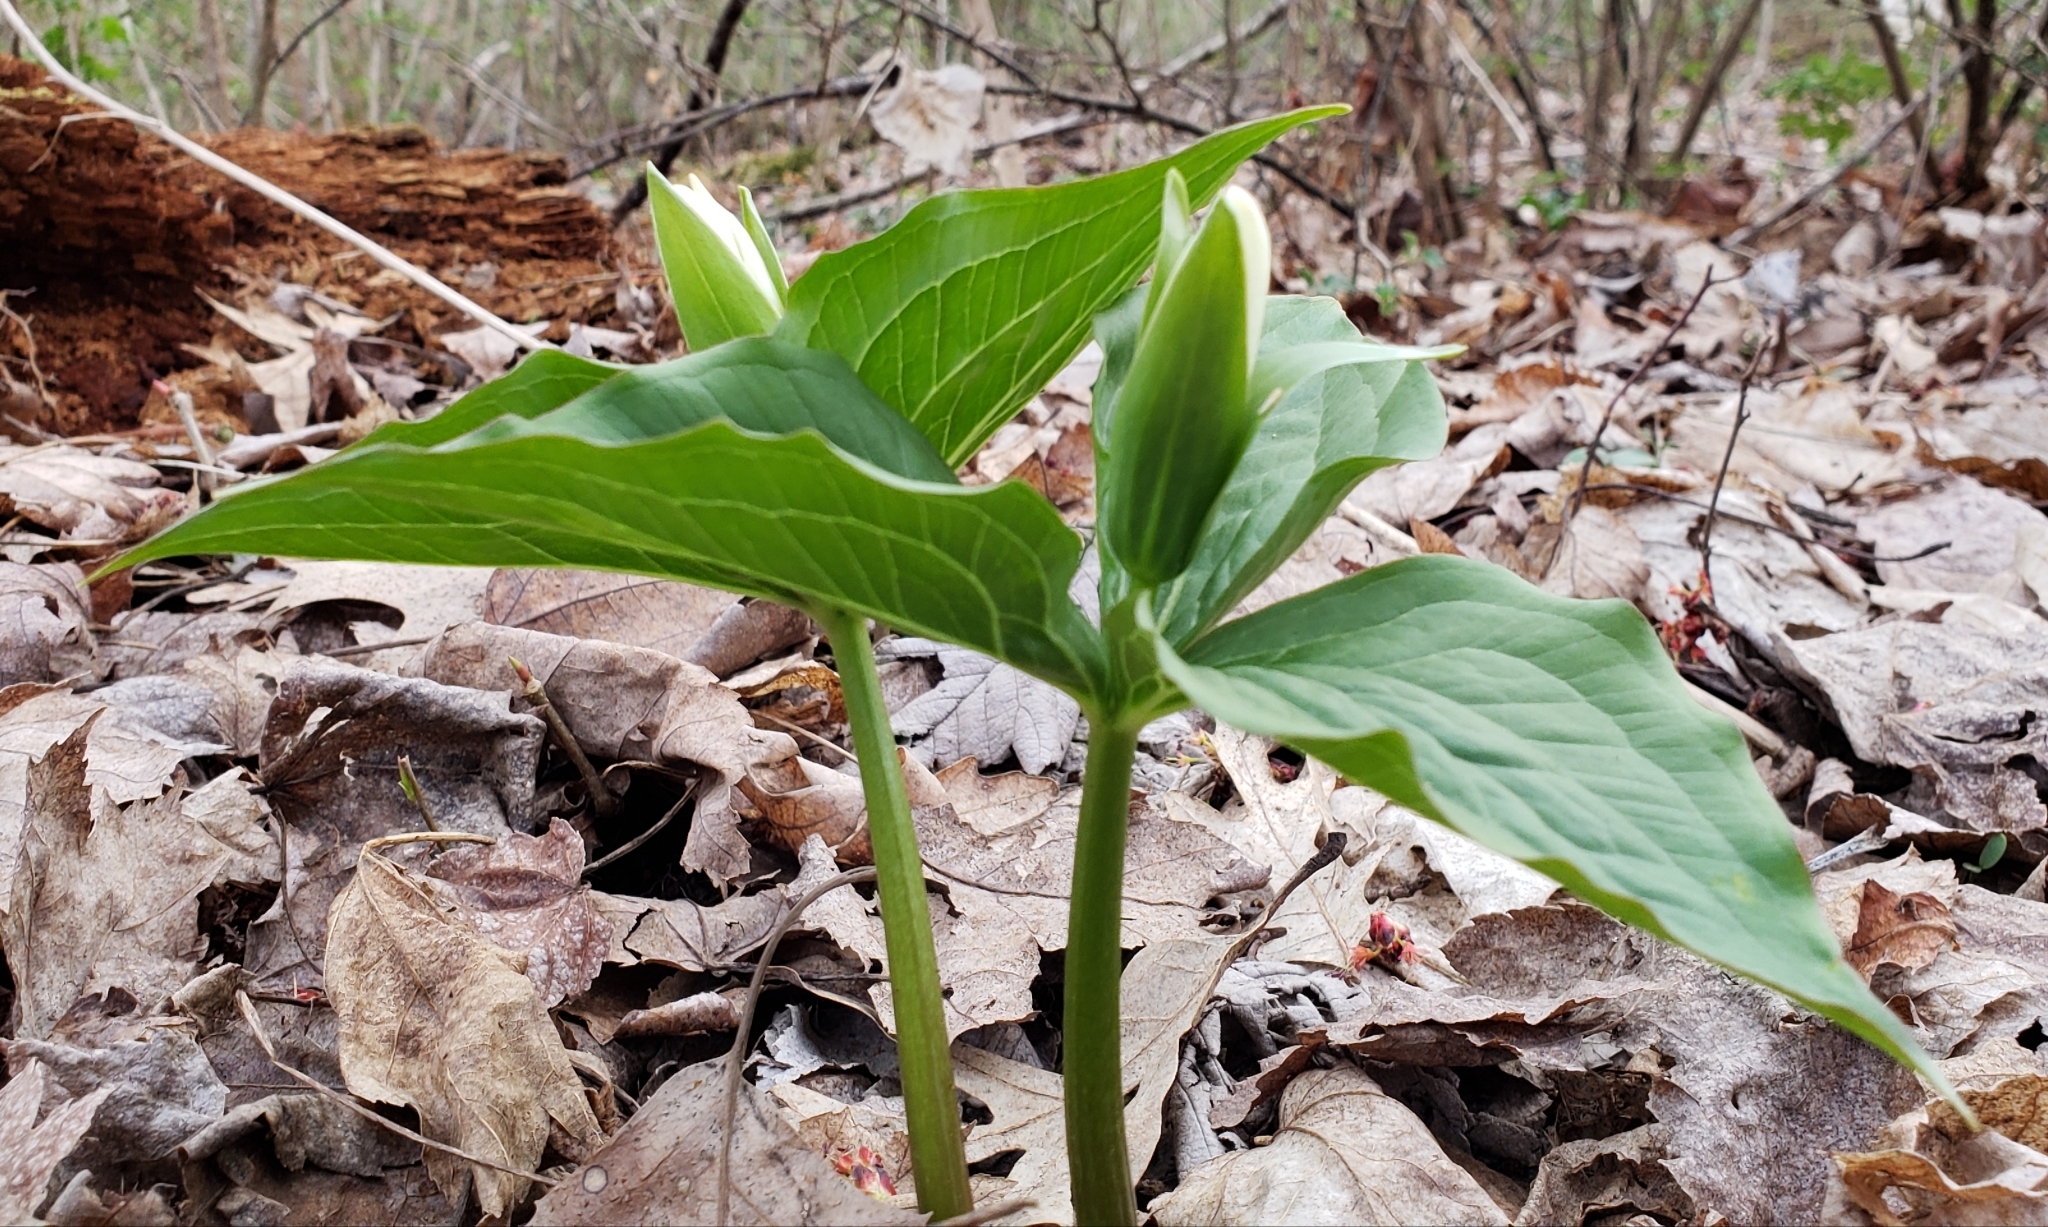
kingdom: Plantae
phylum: Tracheophyta
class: Liliopsida
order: Liliales
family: Melanthiaceae
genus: Trillium
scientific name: Trillium grandiflorum
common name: Great white trillium
